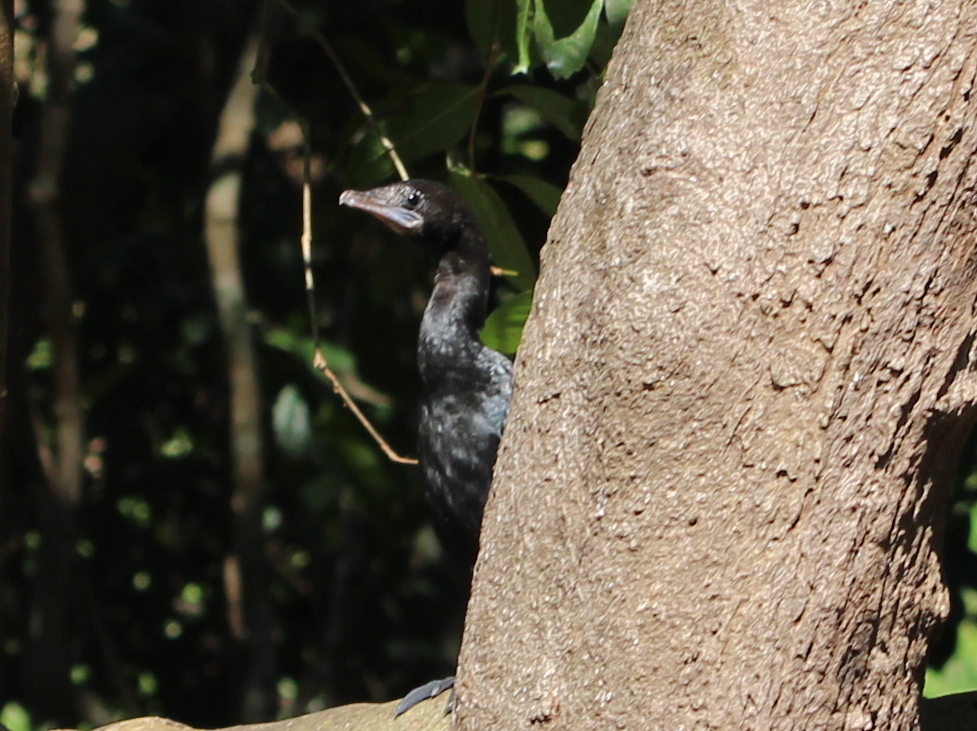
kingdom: Animalia
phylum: Chordata
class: Aves
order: Suliformes
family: Phalacrocoracidae
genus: Microcarbo
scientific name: Microcarbo niger
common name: Little cormorant
